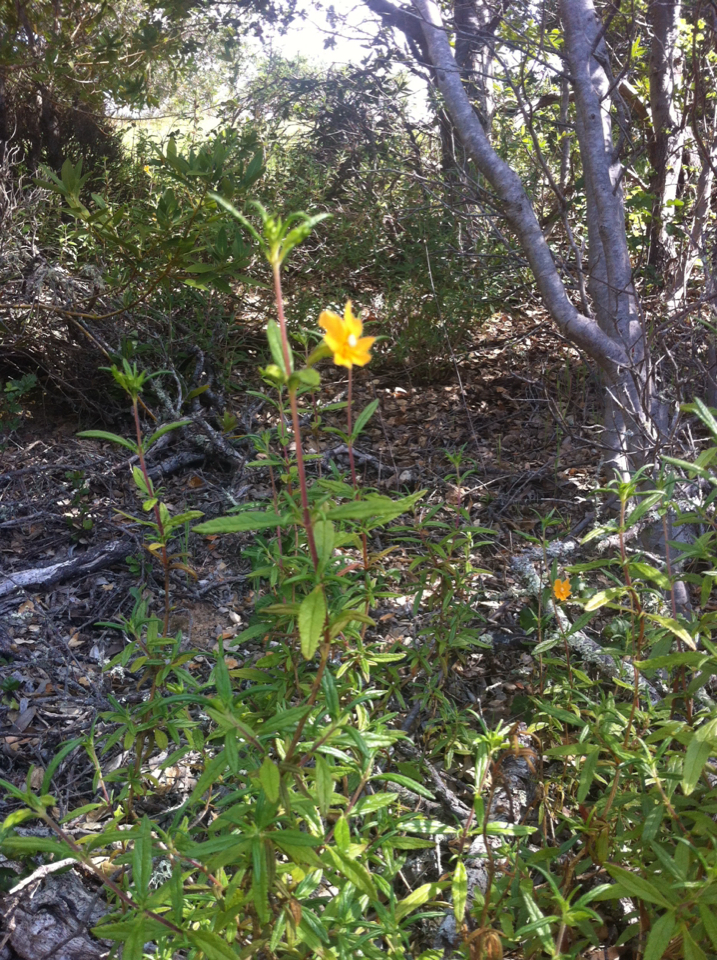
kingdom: Plantae
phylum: Tracheophyta
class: Magnoliopsida
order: Lamiales
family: Phrymaceae
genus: Diplacus
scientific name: Diplacus aurantiacus
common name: Bush monkey-flower
